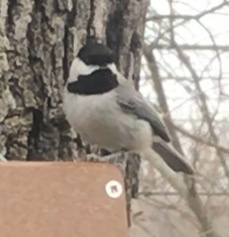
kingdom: Animalia
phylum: Chordata
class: Aves
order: Passeriformes
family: Paridae
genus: Poecile
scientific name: Poecile carolinensis
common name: Carolina chickadee
